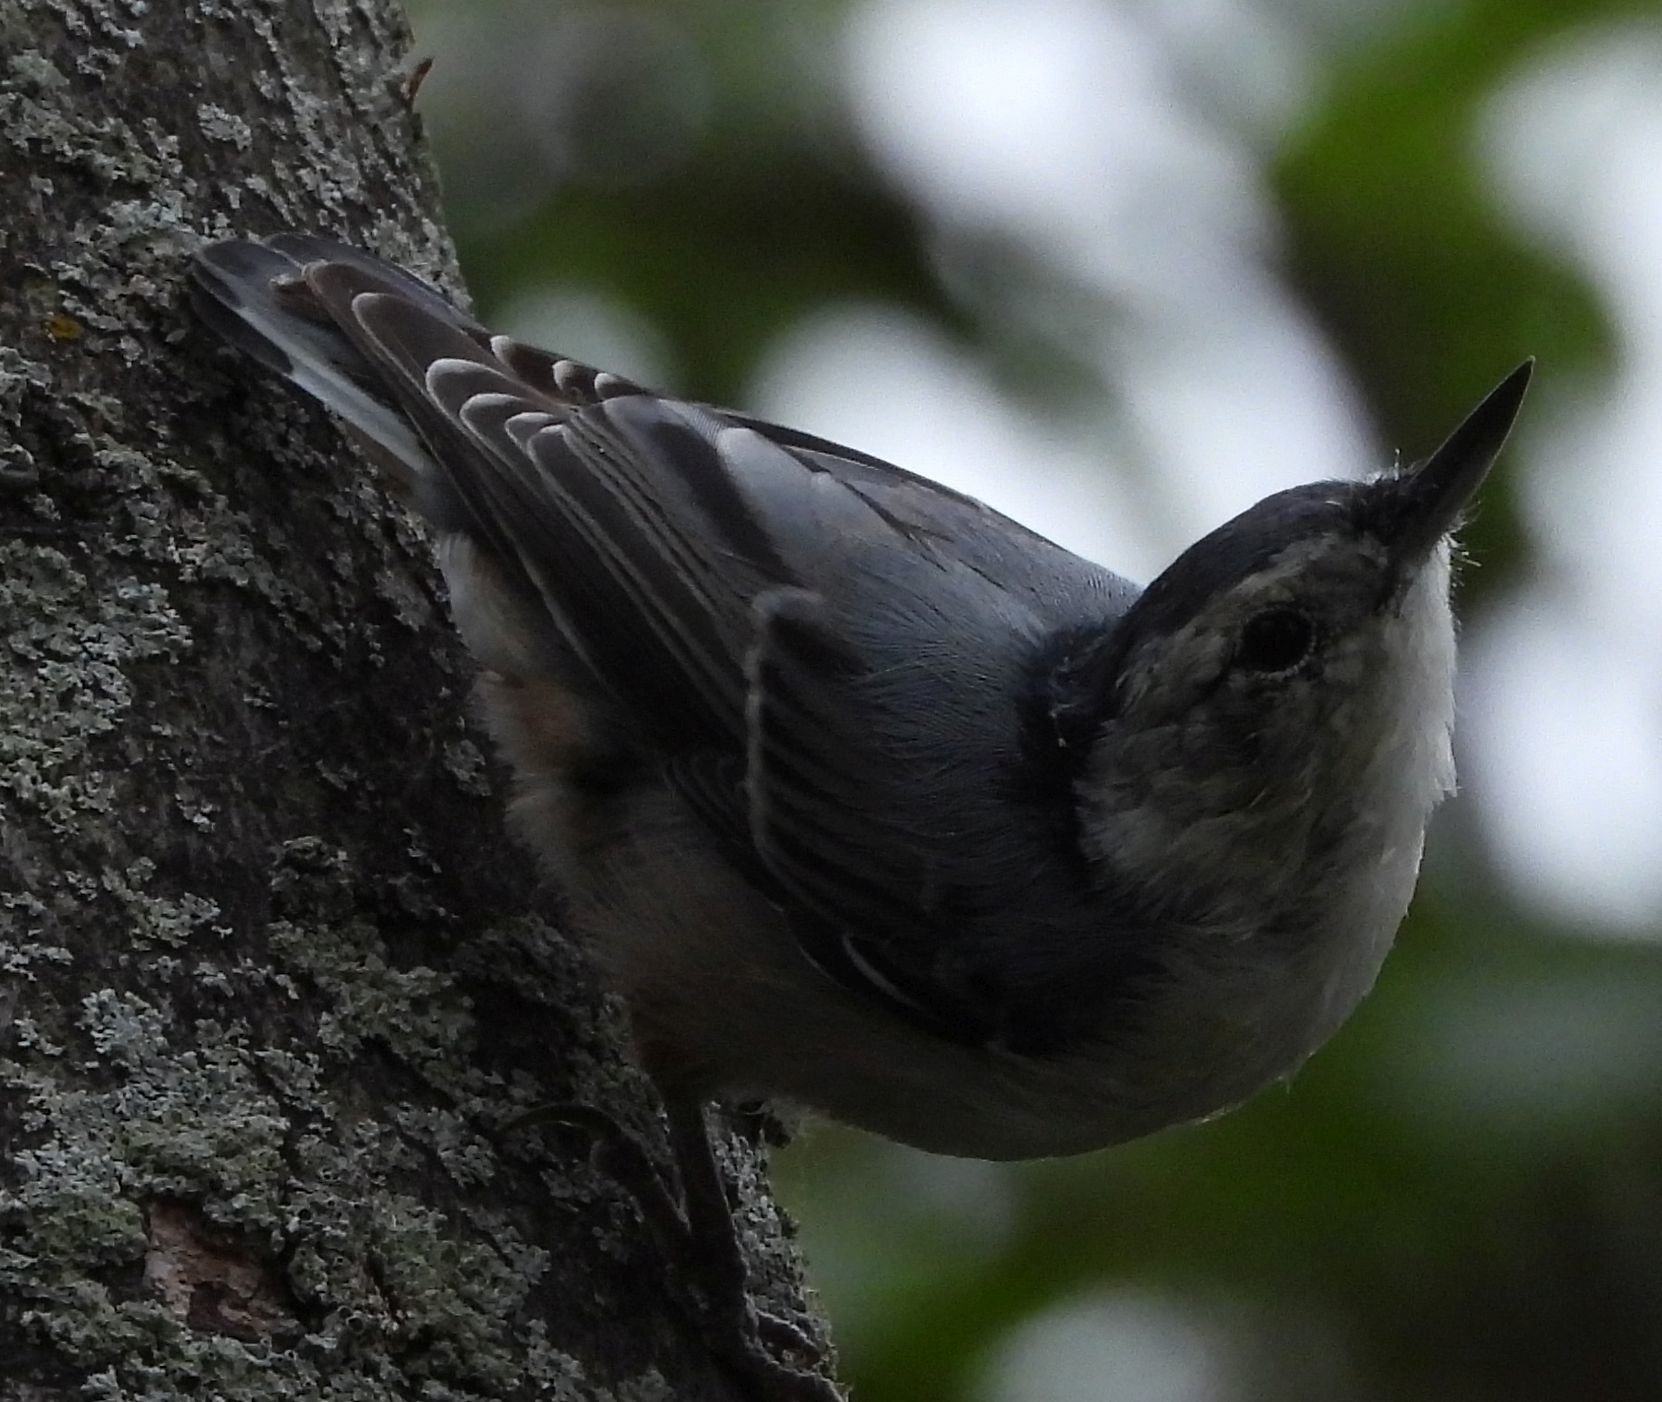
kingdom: Animalia
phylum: Chordata
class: Aves
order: Passeriformes
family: Sittidae
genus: Sitta
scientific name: Sitta carolinensis
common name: White-breasted nuthatch
